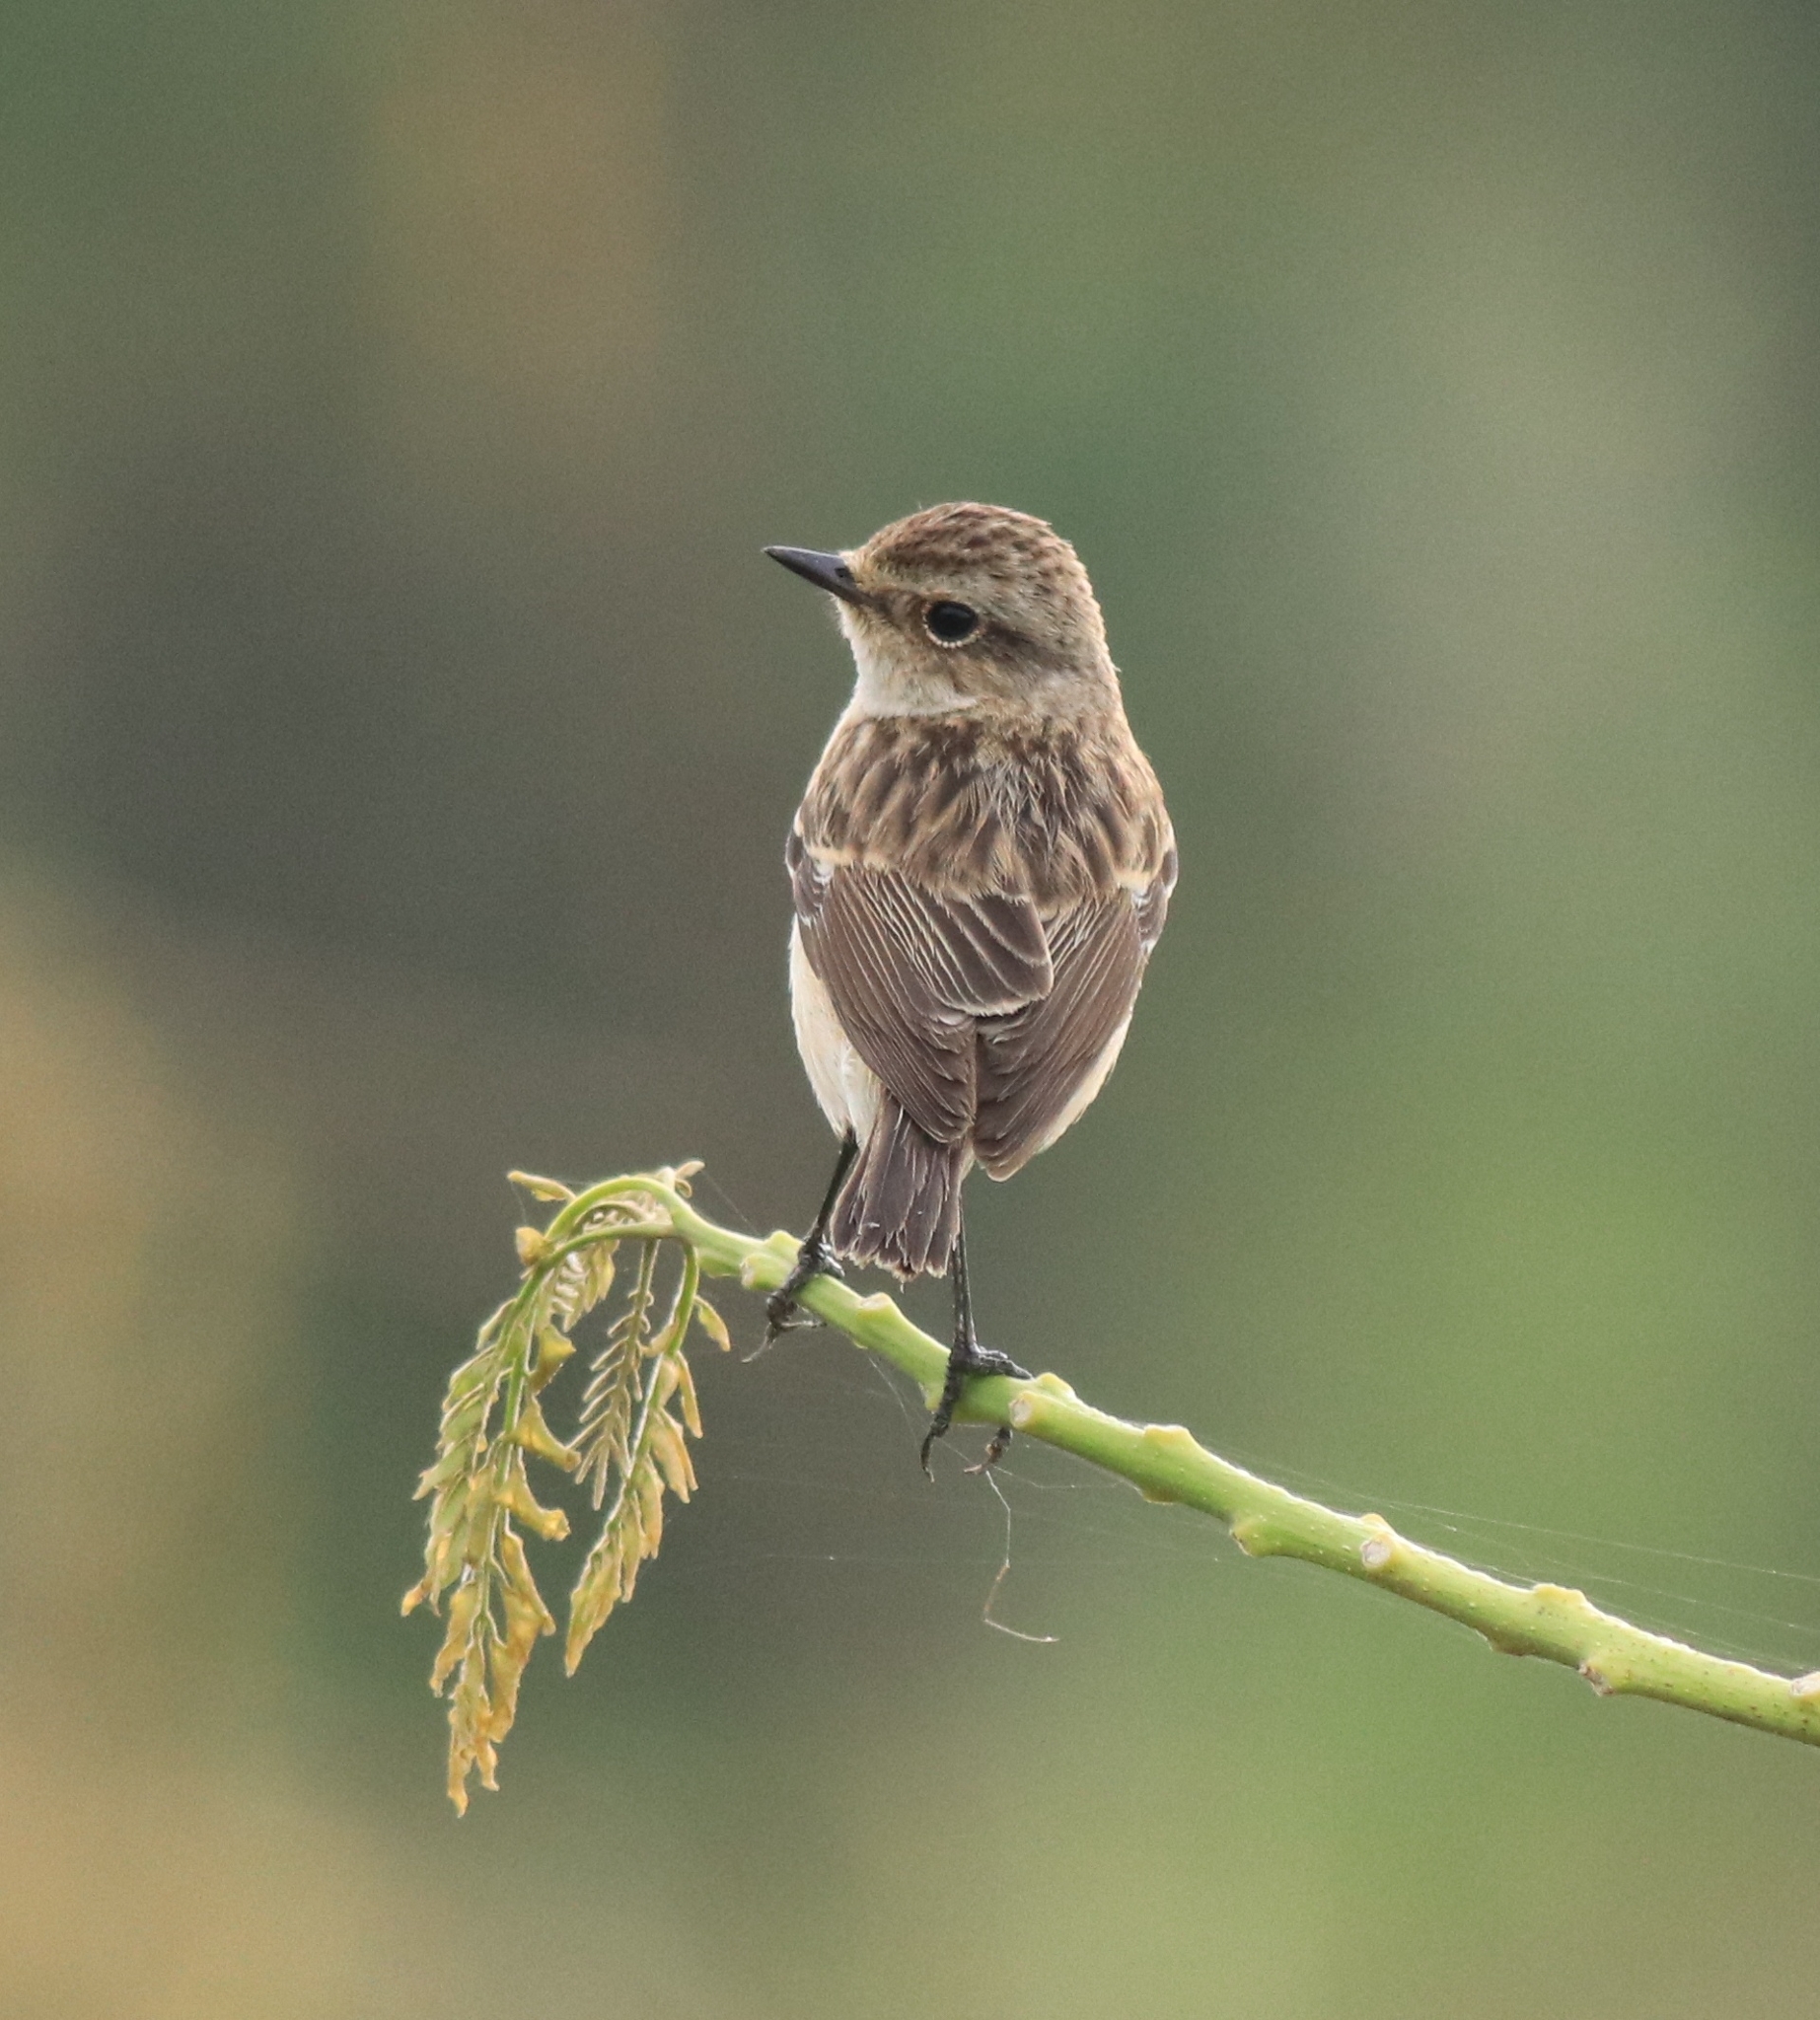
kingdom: Animalia
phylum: Chordata
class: Aves
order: Passeriformes
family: Muscicapidae
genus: Saxicola
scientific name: Saxicola maurus
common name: Siberian stonechat
